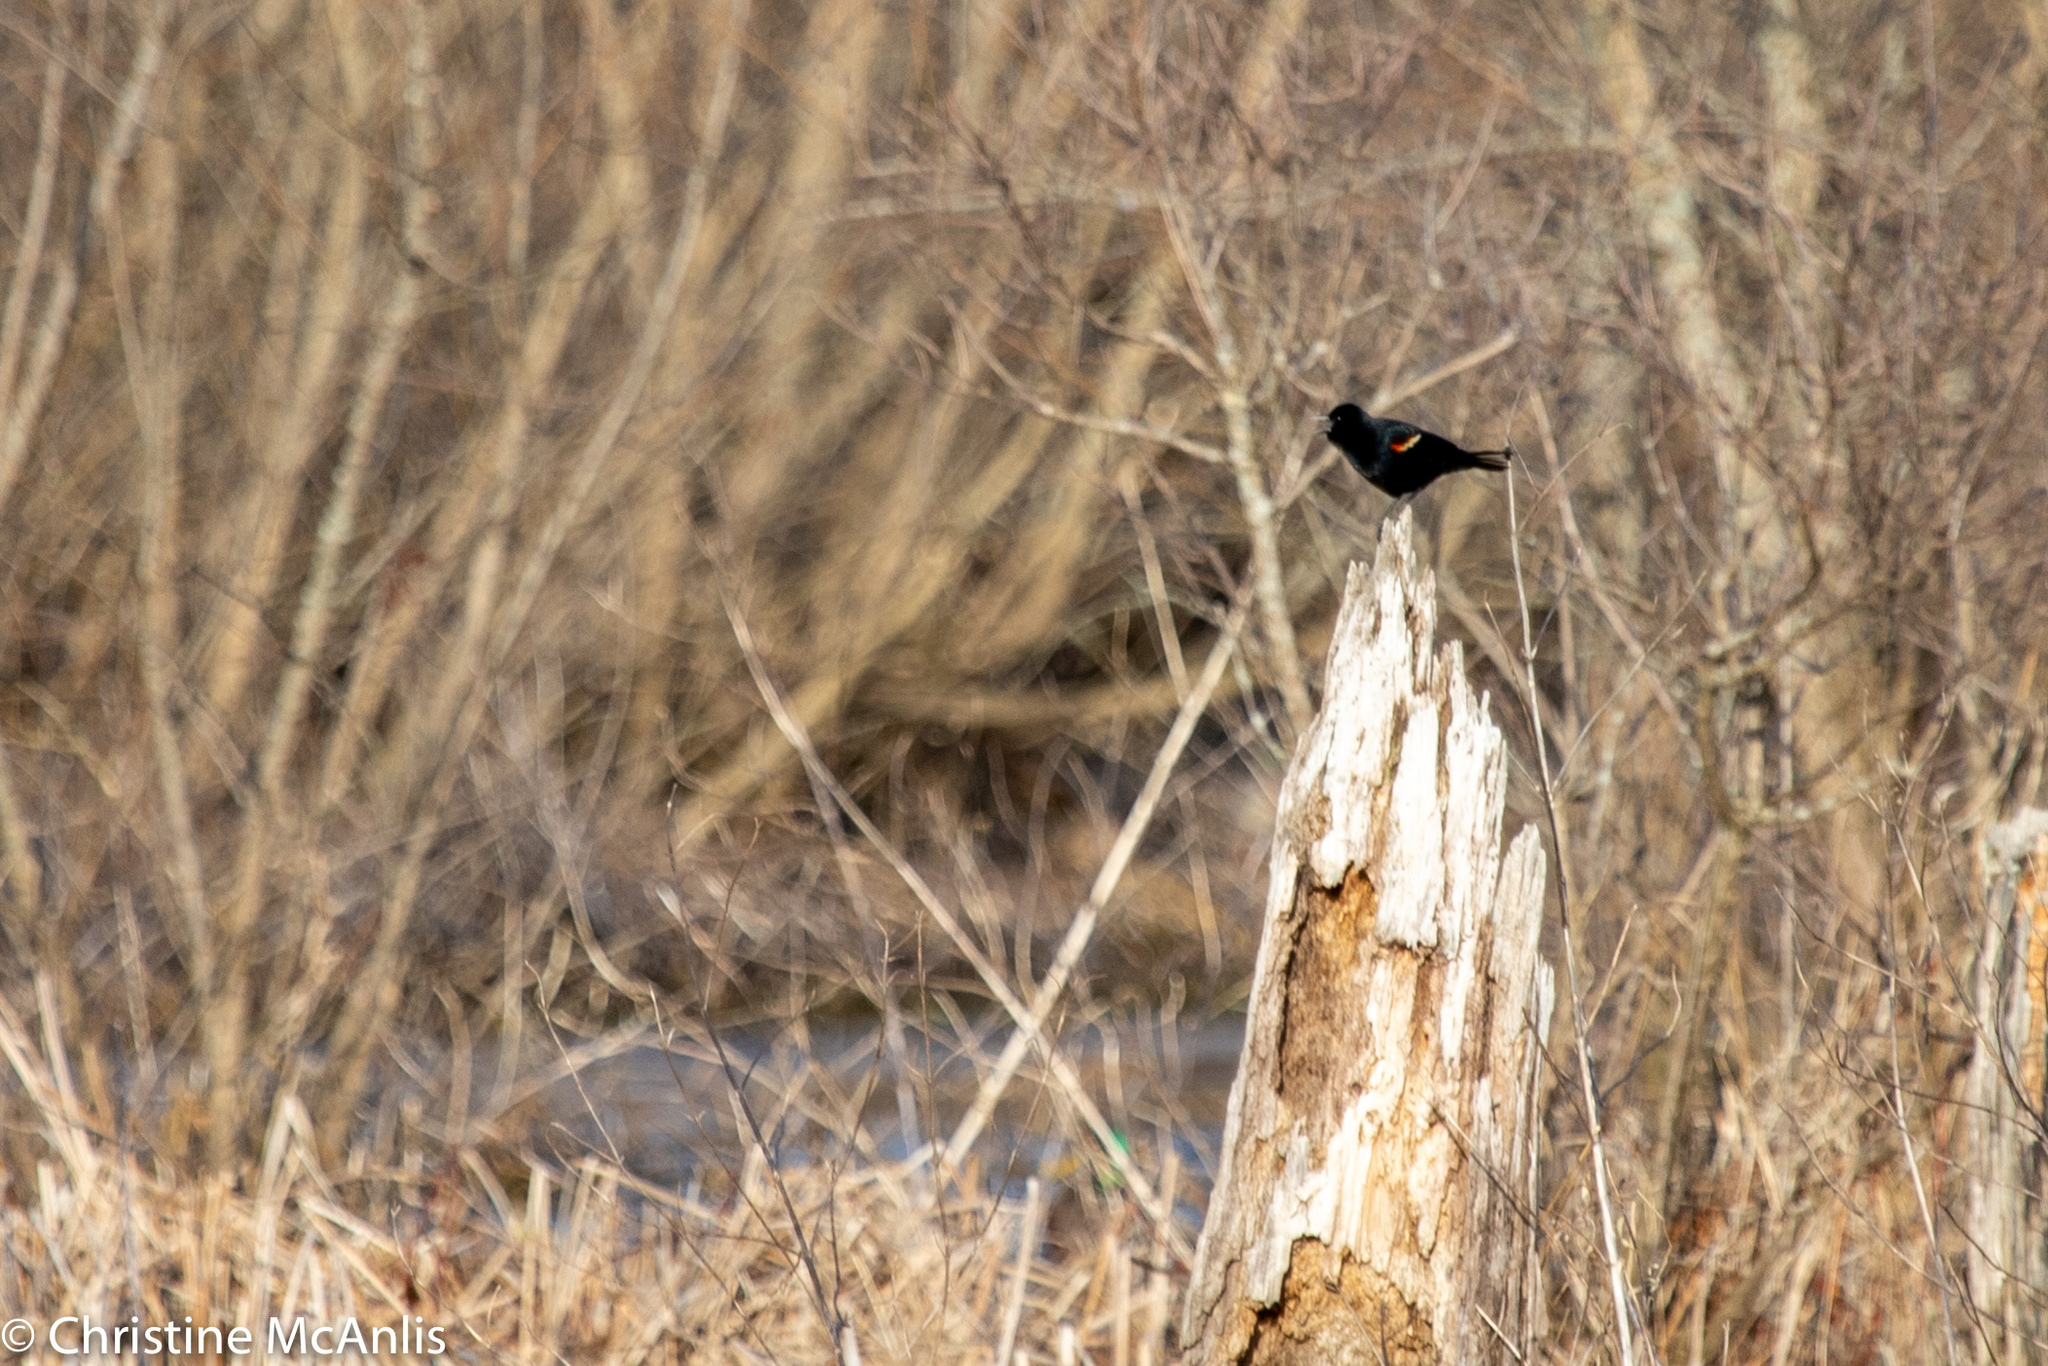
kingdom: Animalia
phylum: Chordata
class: Aves
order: Passeriformes
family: Icteridae
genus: Agelaius
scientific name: Agelaius phoeniceus
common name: Red-winged blackbird
